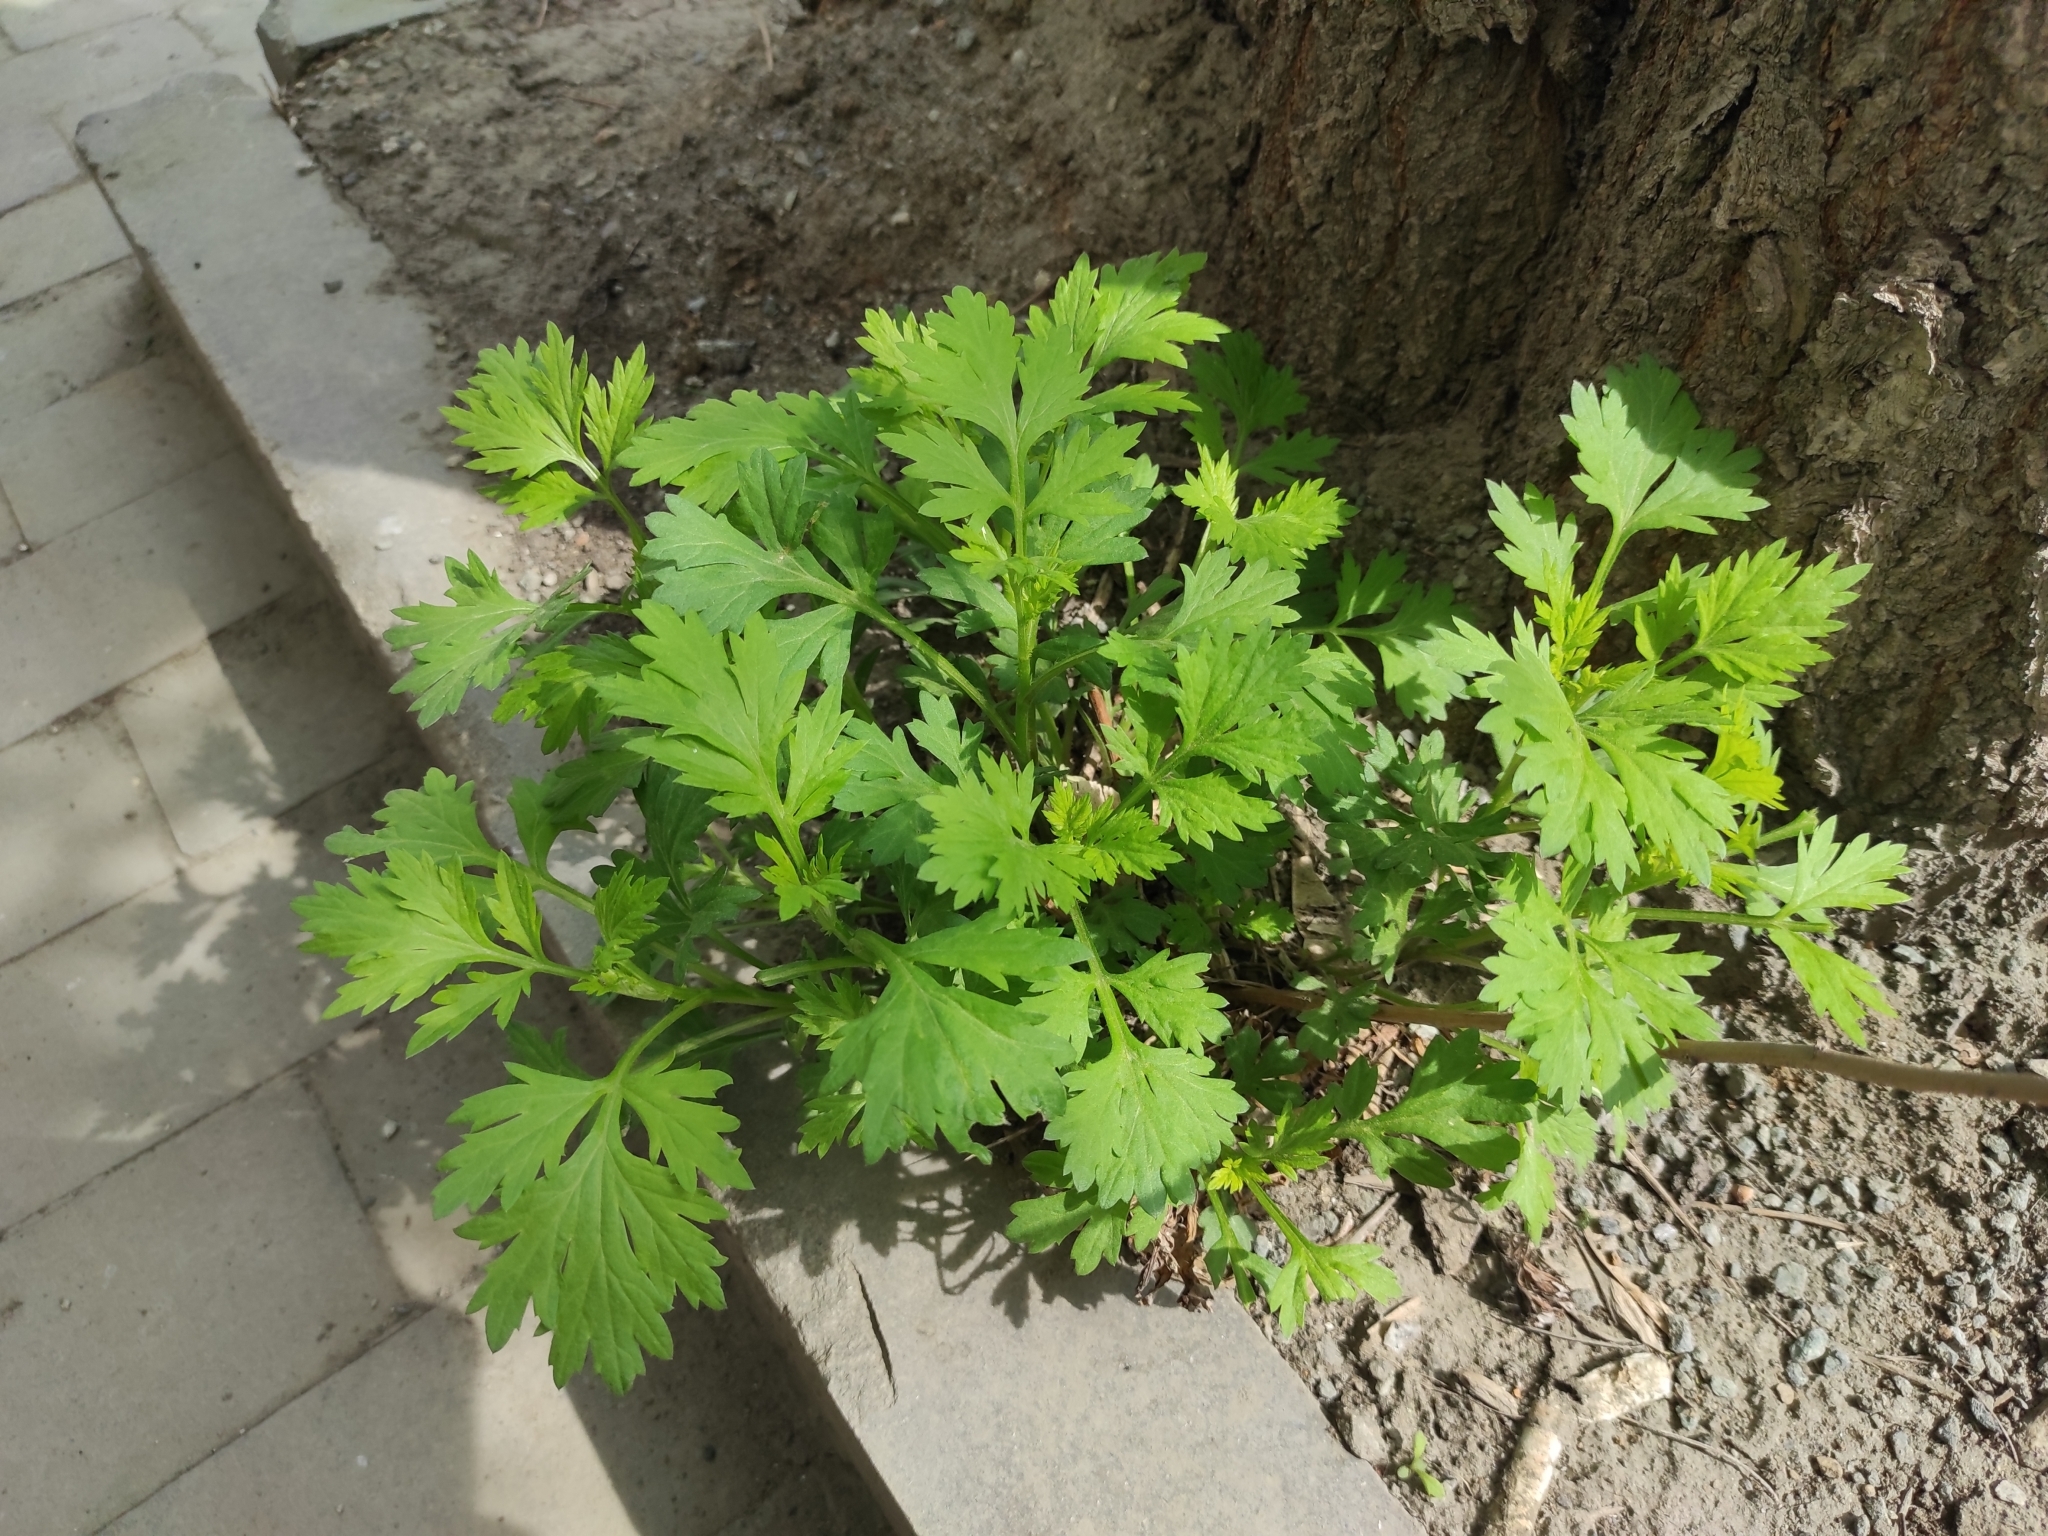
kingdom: Plantae
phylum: Tracheophyta
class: Magnoliopsida
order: Asterales
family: Asteraceae
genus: Artemisia
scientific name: Artemisia vulgaris
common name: Mugwort
